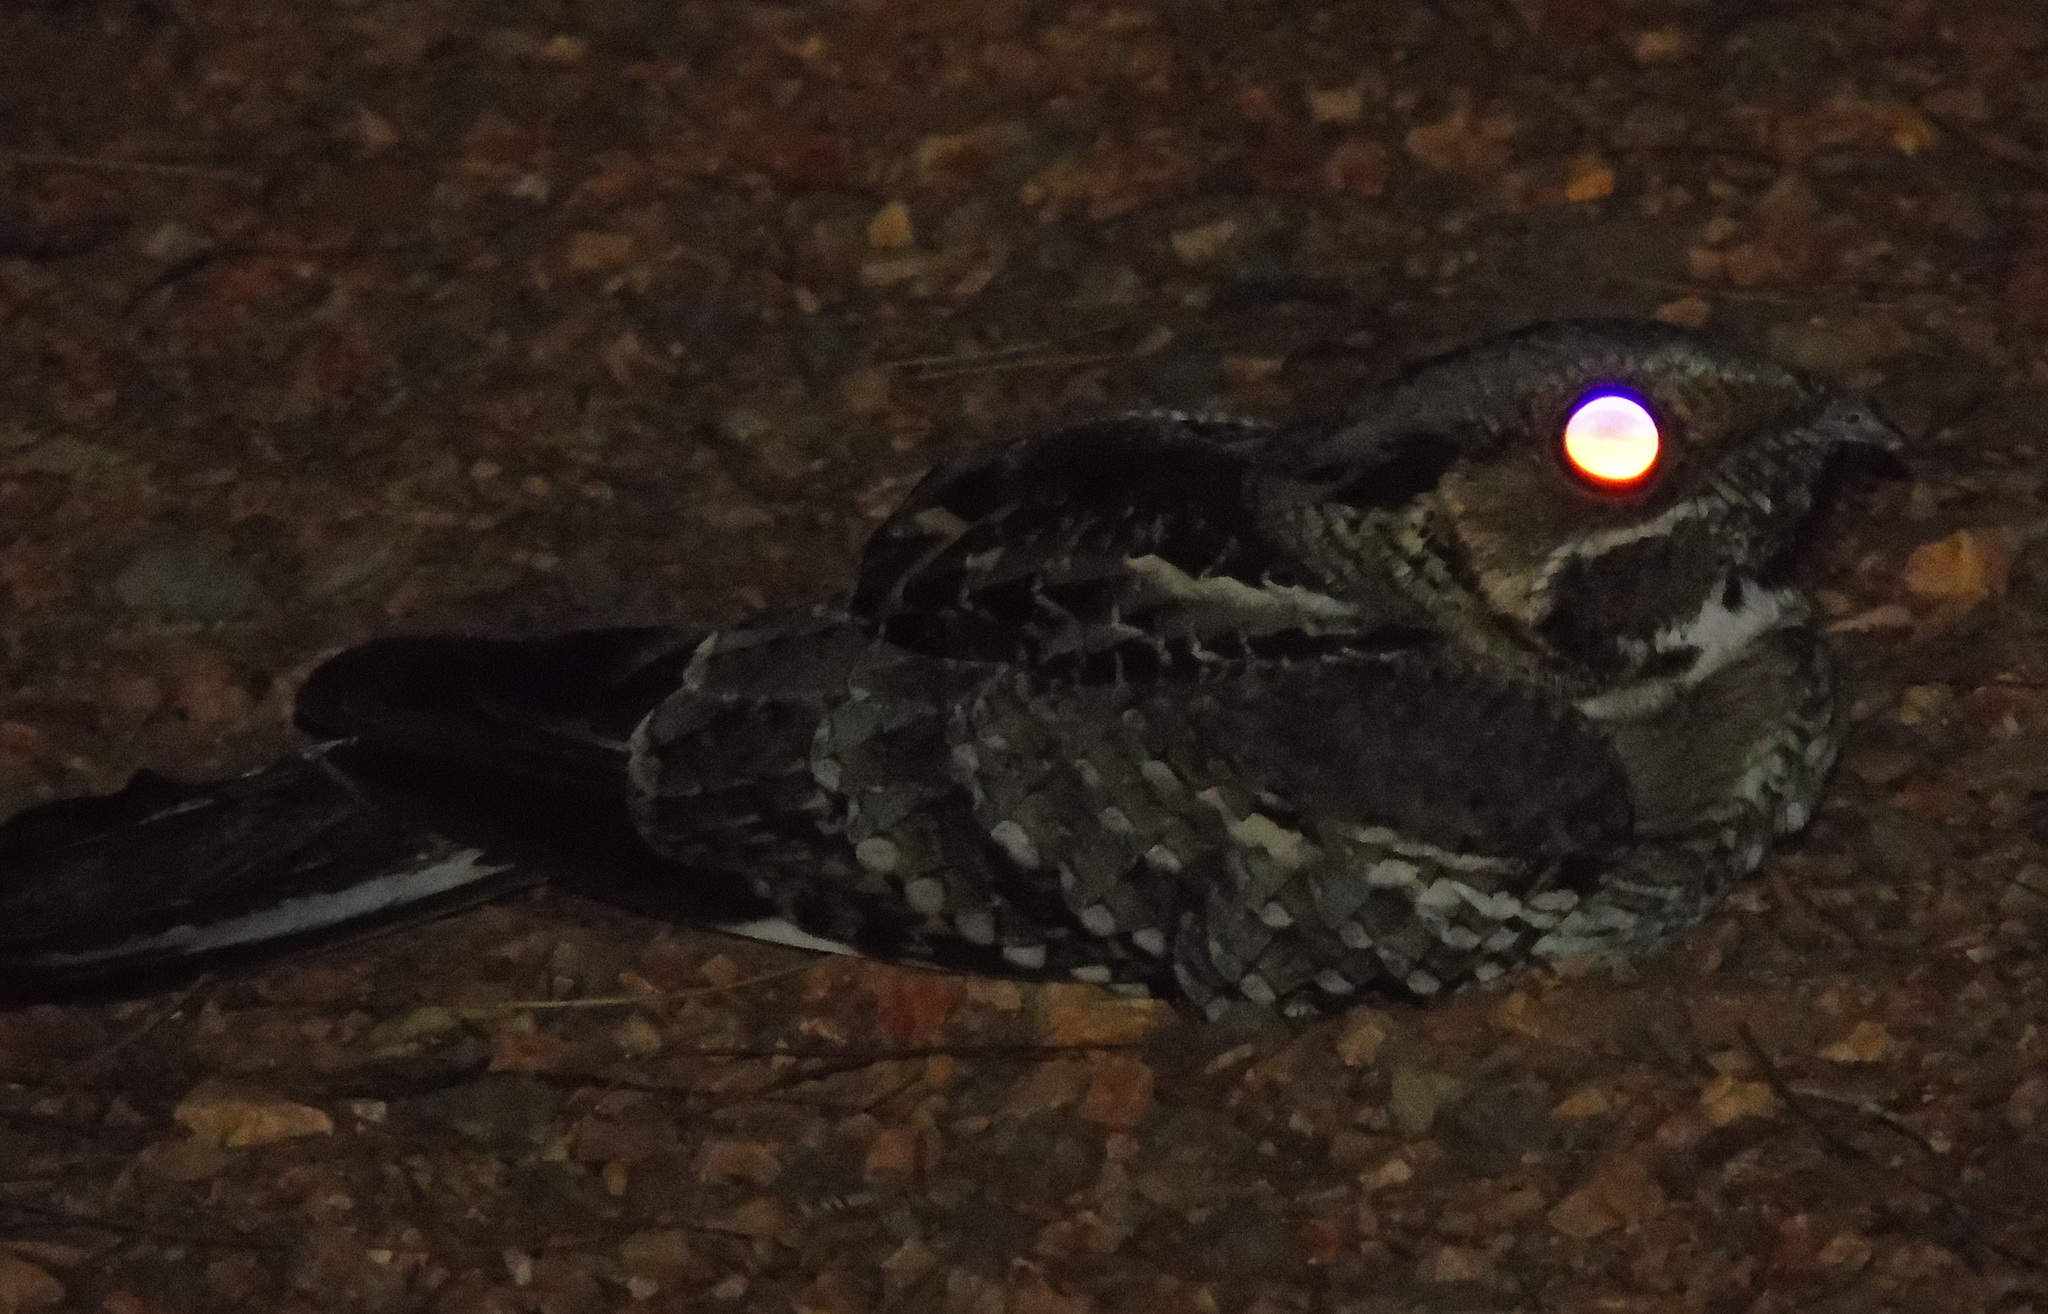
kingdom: Animalia
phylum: Chordata
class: Aves
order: Caprimulgiformes
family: Caprimulgidae
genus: Nyctidromus
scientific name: Nyctidromus albicollis
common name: Pauraque
